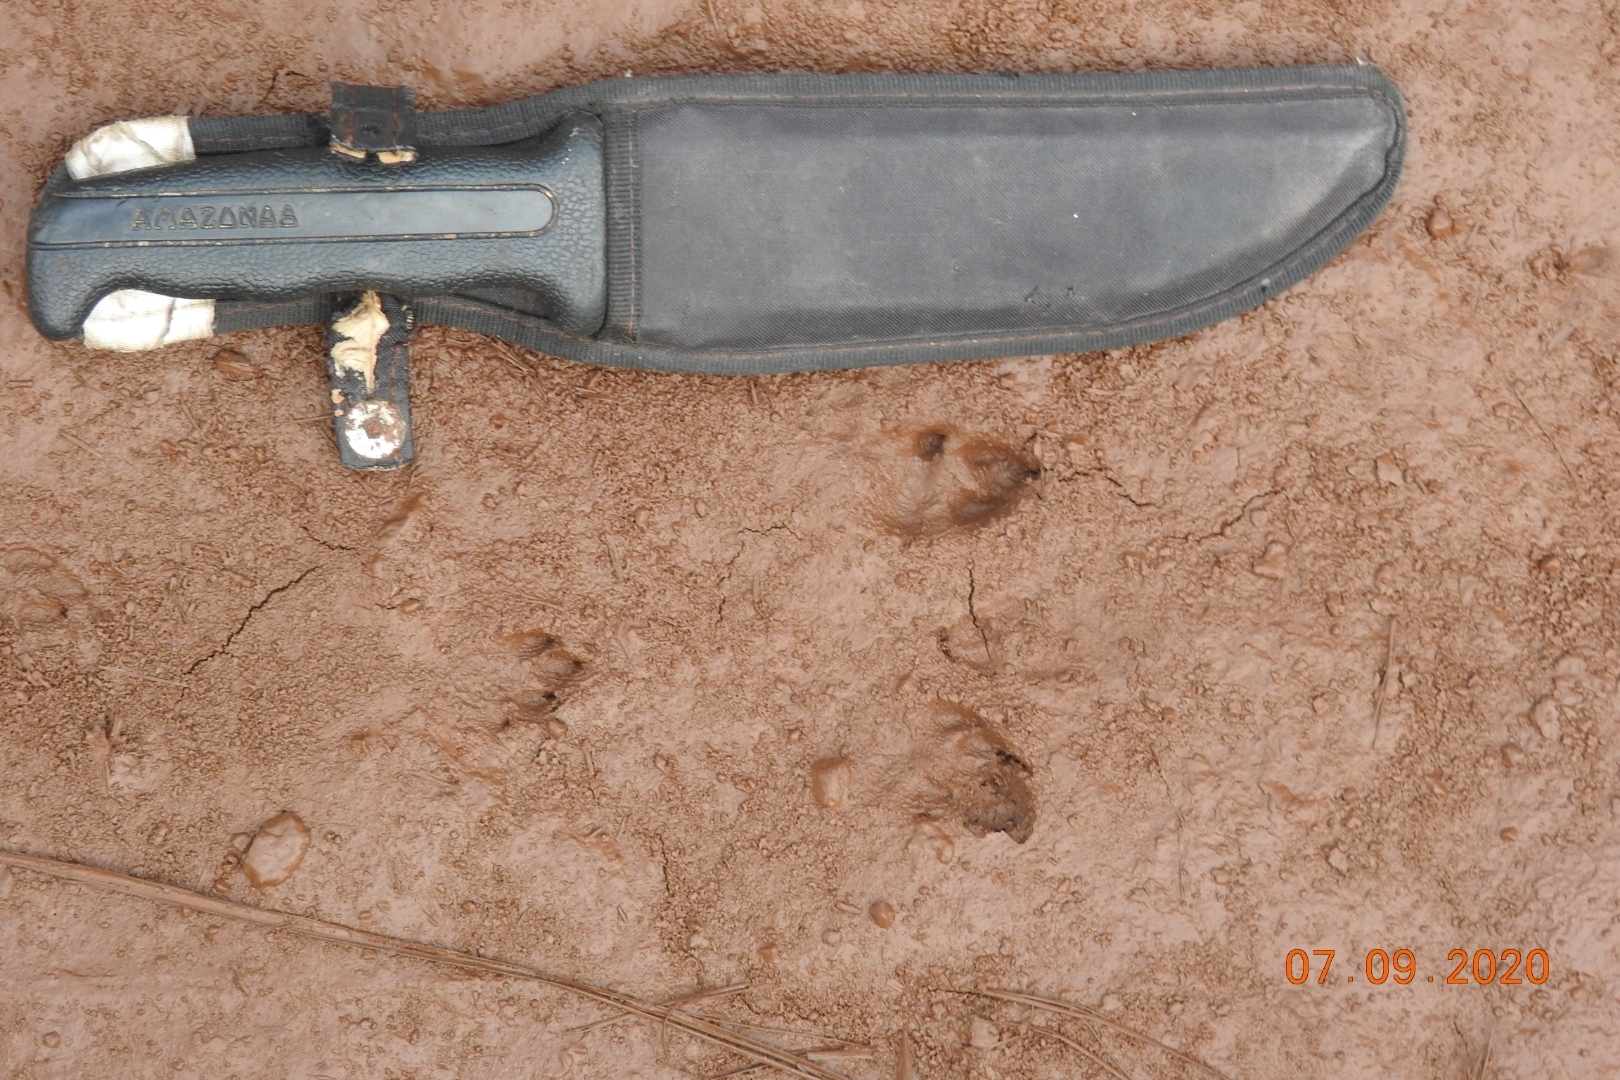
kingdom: Animalia
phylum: Chordata
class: Mammalia
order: Lagomorpha
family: Leporidae
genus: Sylvilagus
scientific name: Sylvilagus floridanus
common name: Eastern cottontail
